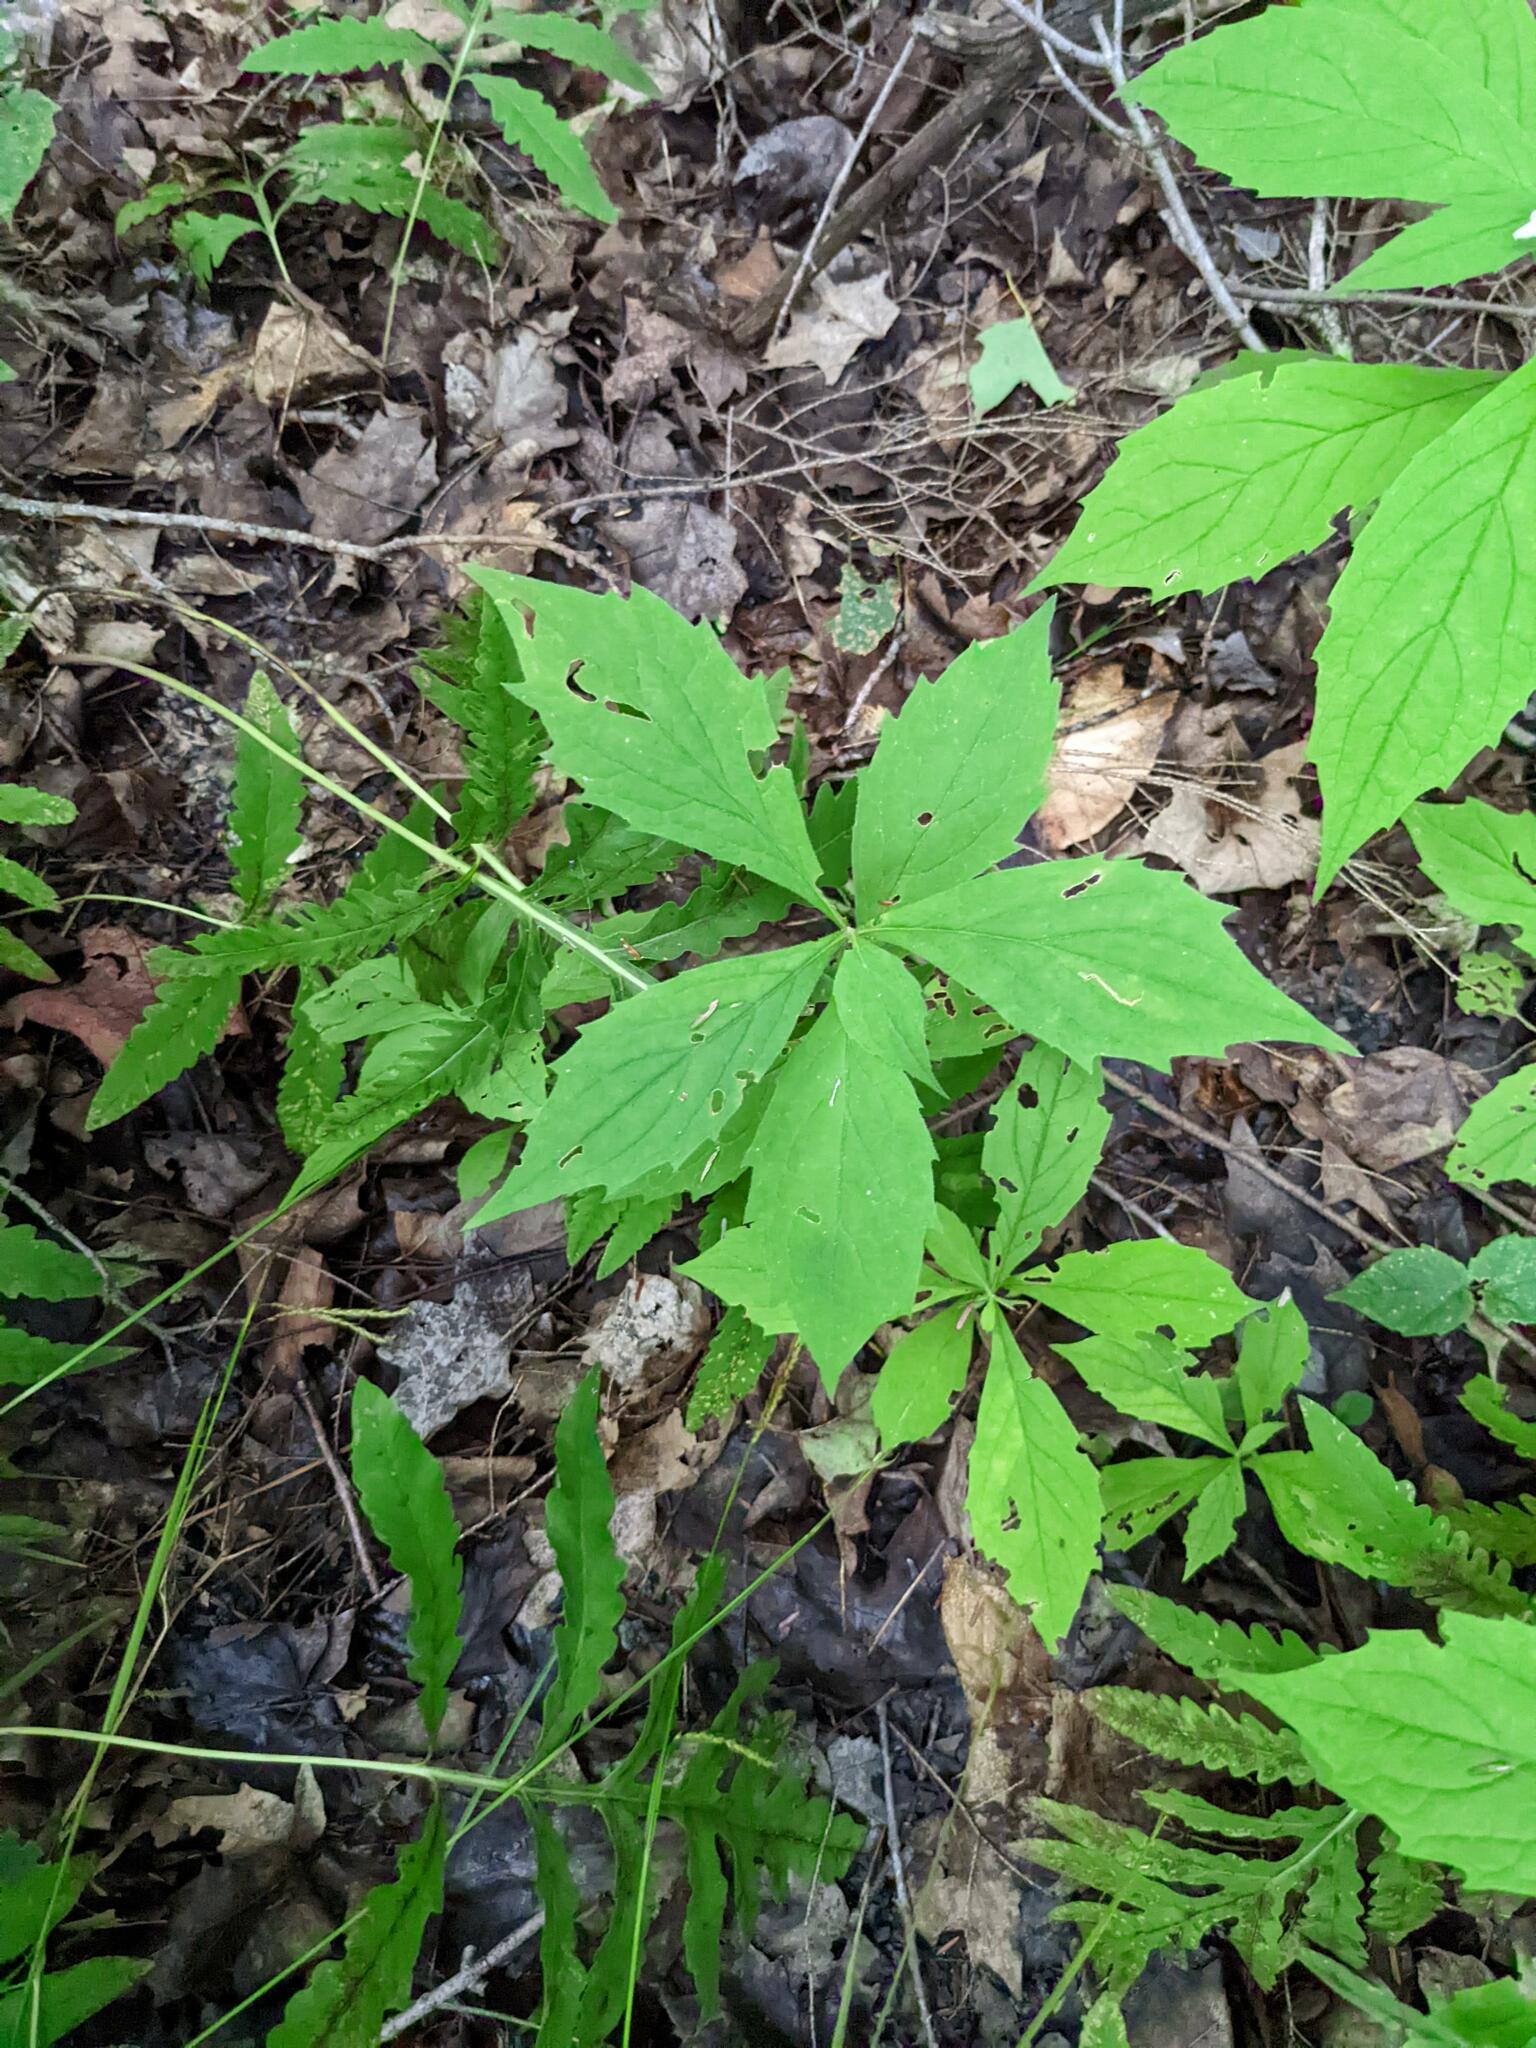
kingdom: Plantae
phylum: Tracheophyta
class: Magnoliopsida
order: Asterales
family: Asteraceae
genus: Oclemena
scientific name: Oclemena acuminata
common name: Mountain aster
